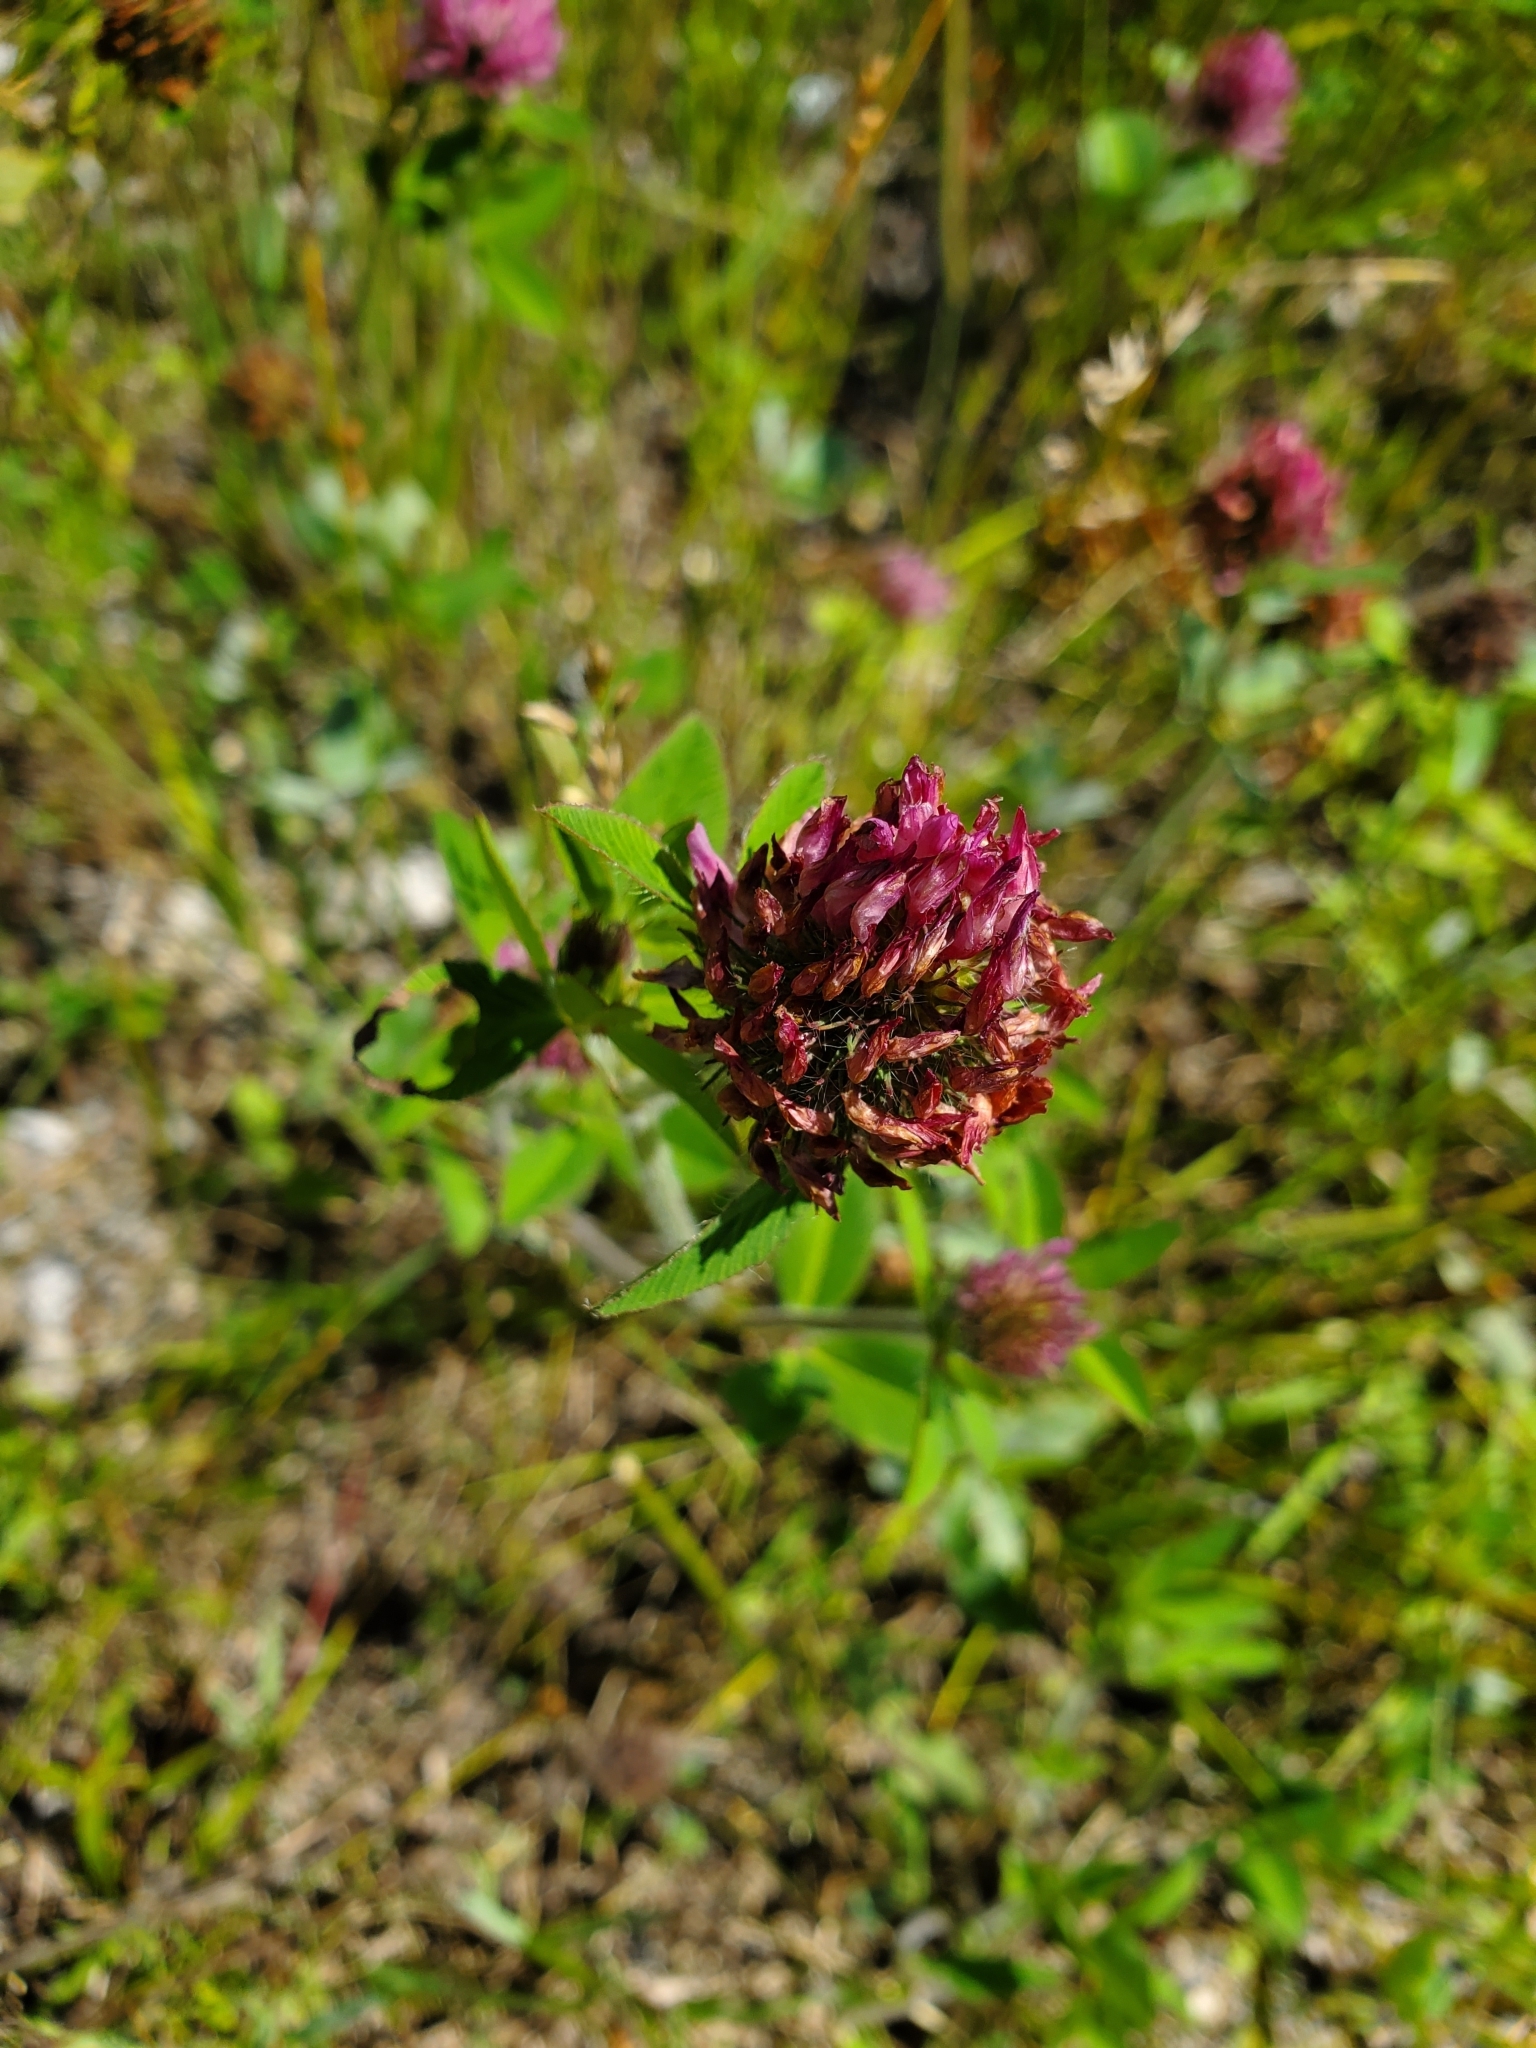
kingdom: Plantae
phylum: Tracheophyta
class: Magnoliopsida
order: Fabales
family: Fabaceae
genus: Trifolium
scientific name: Trifolium pratense
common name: Red clover
